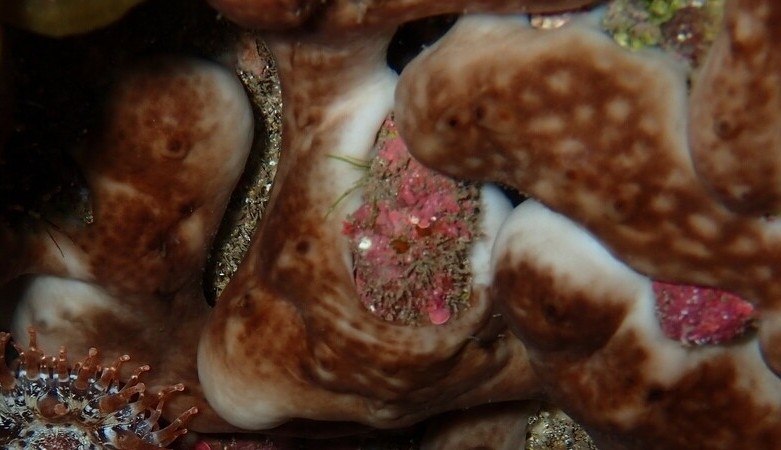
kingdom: Animalia
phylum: Porifera
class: Demospongiae
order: Chondrosiida
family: Chondrosiidae
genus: Chondrosia
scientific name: Chondrosia reniformis
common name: Chicken liver sponge
